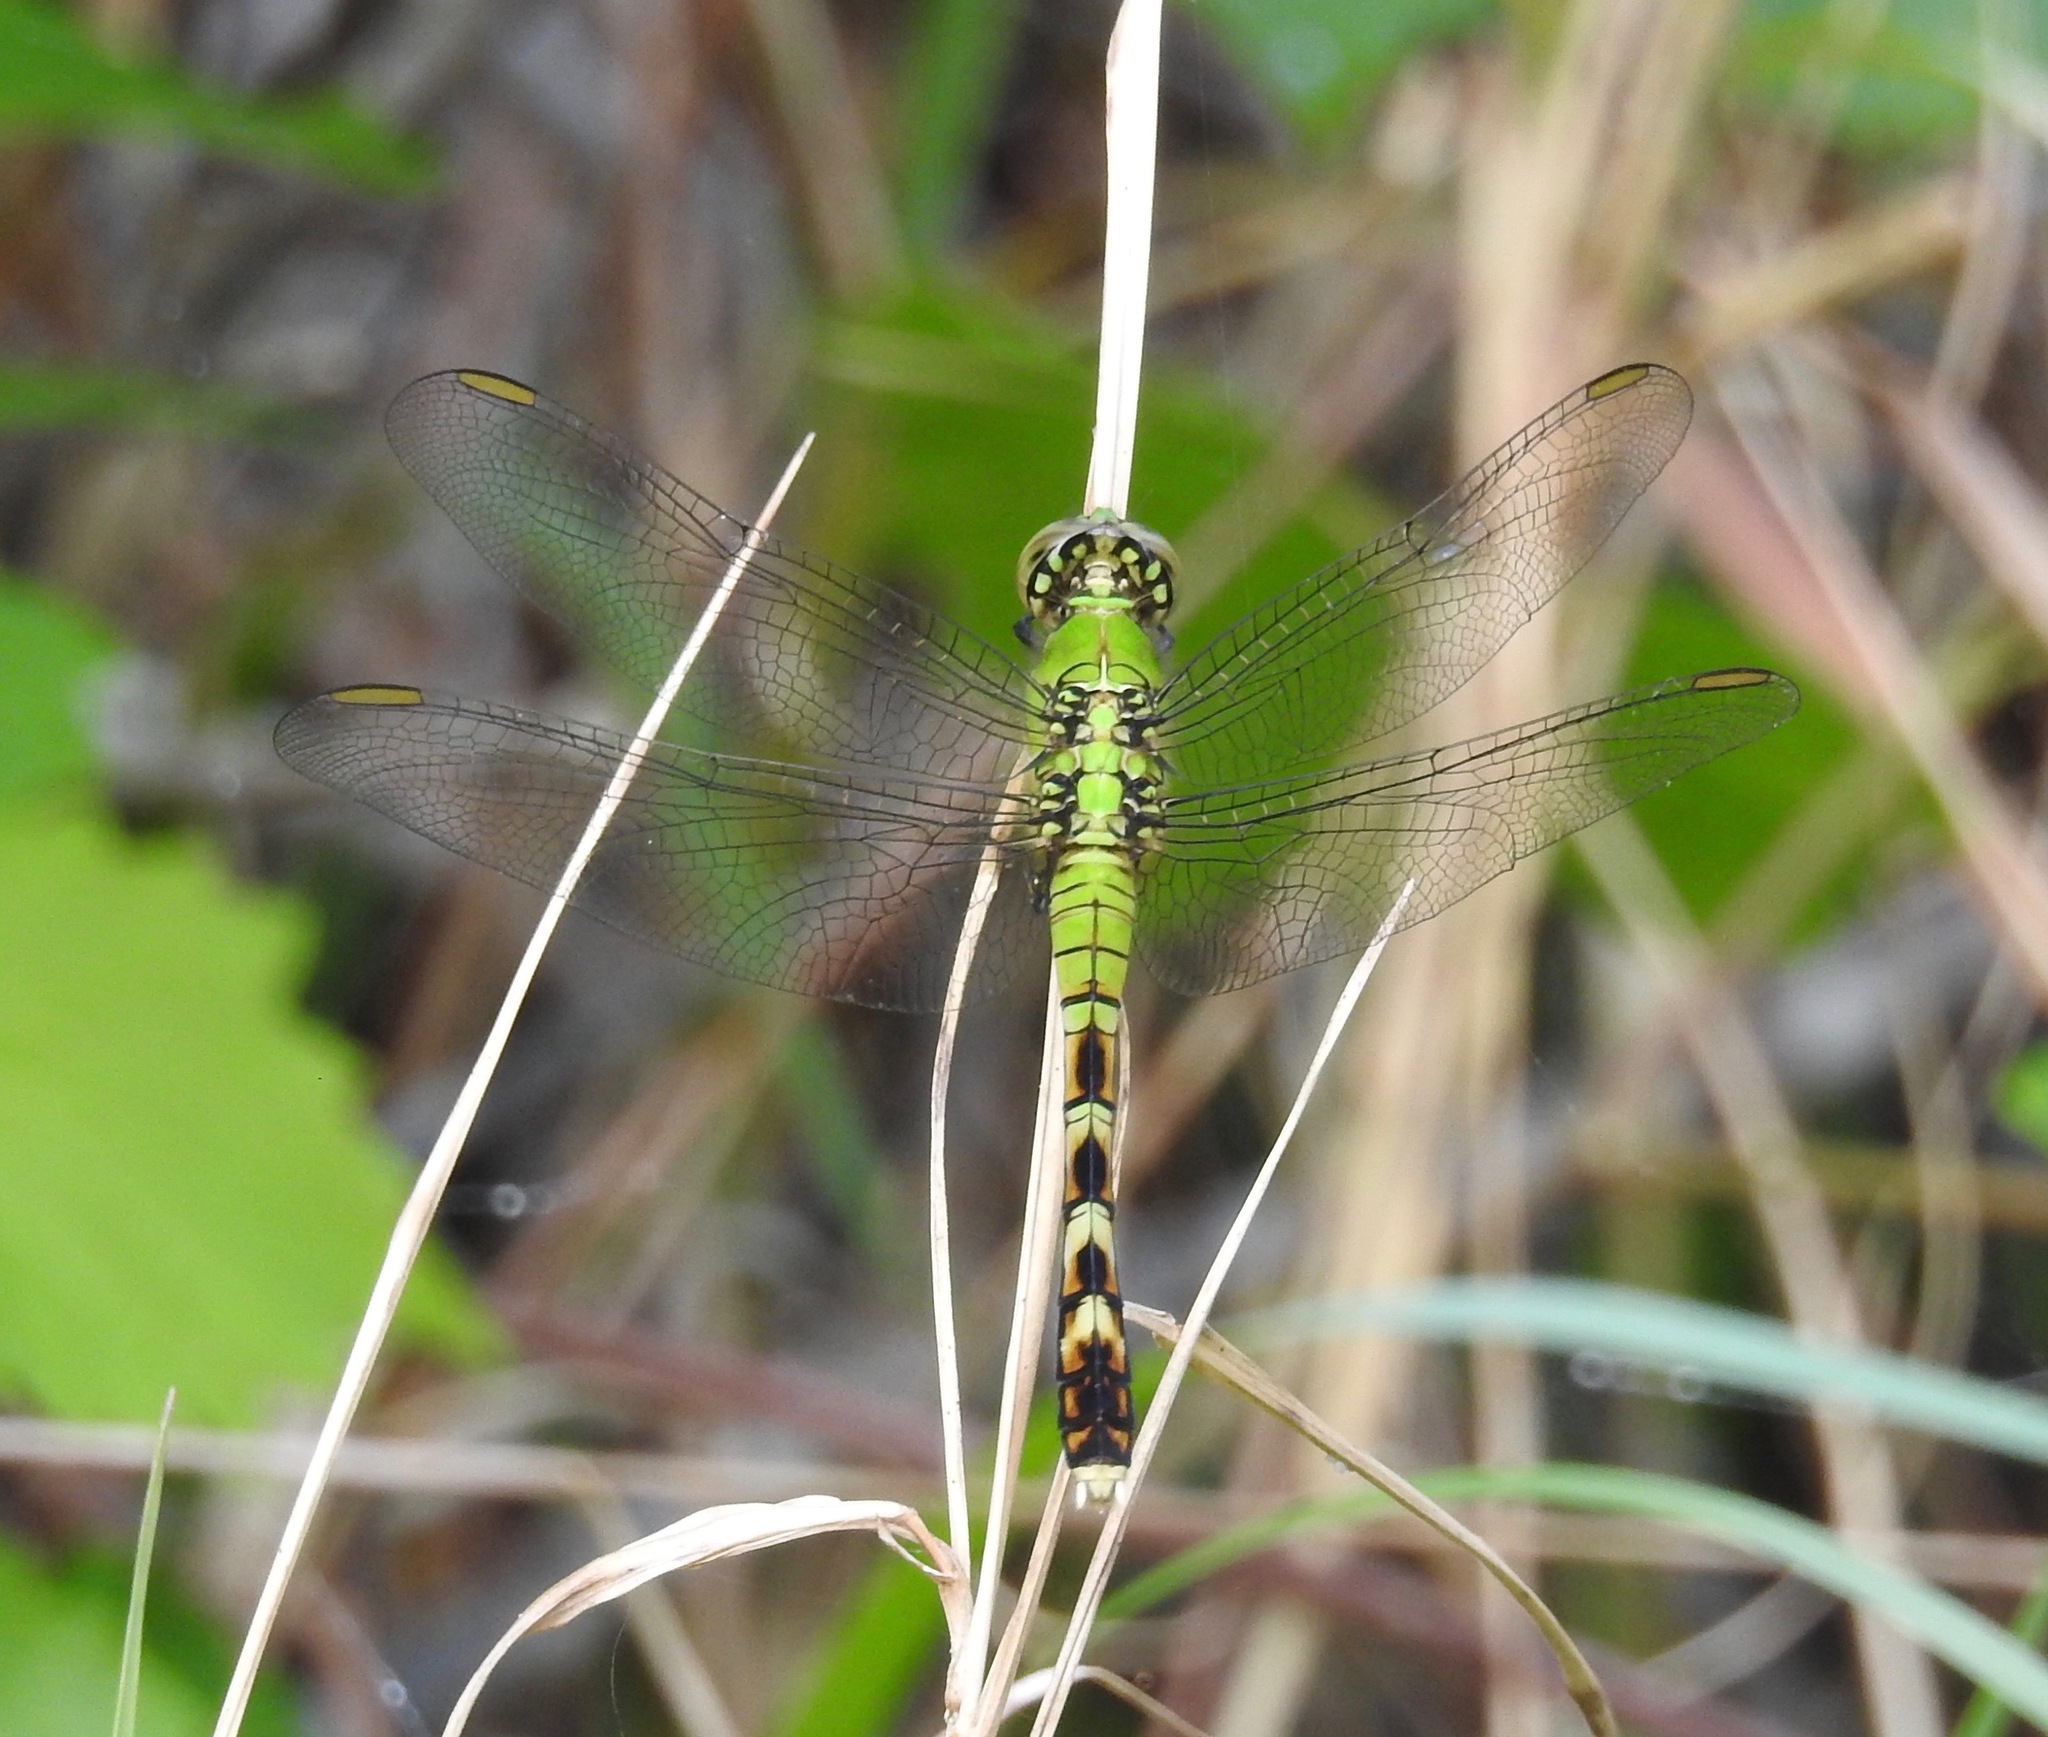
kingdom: Animalia
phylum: Arthropoda
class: Insecta
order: Odonata
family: Libellulidae
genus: Erythemis
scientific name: Erythemis simplicicollis
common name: Eastern pondhawk
